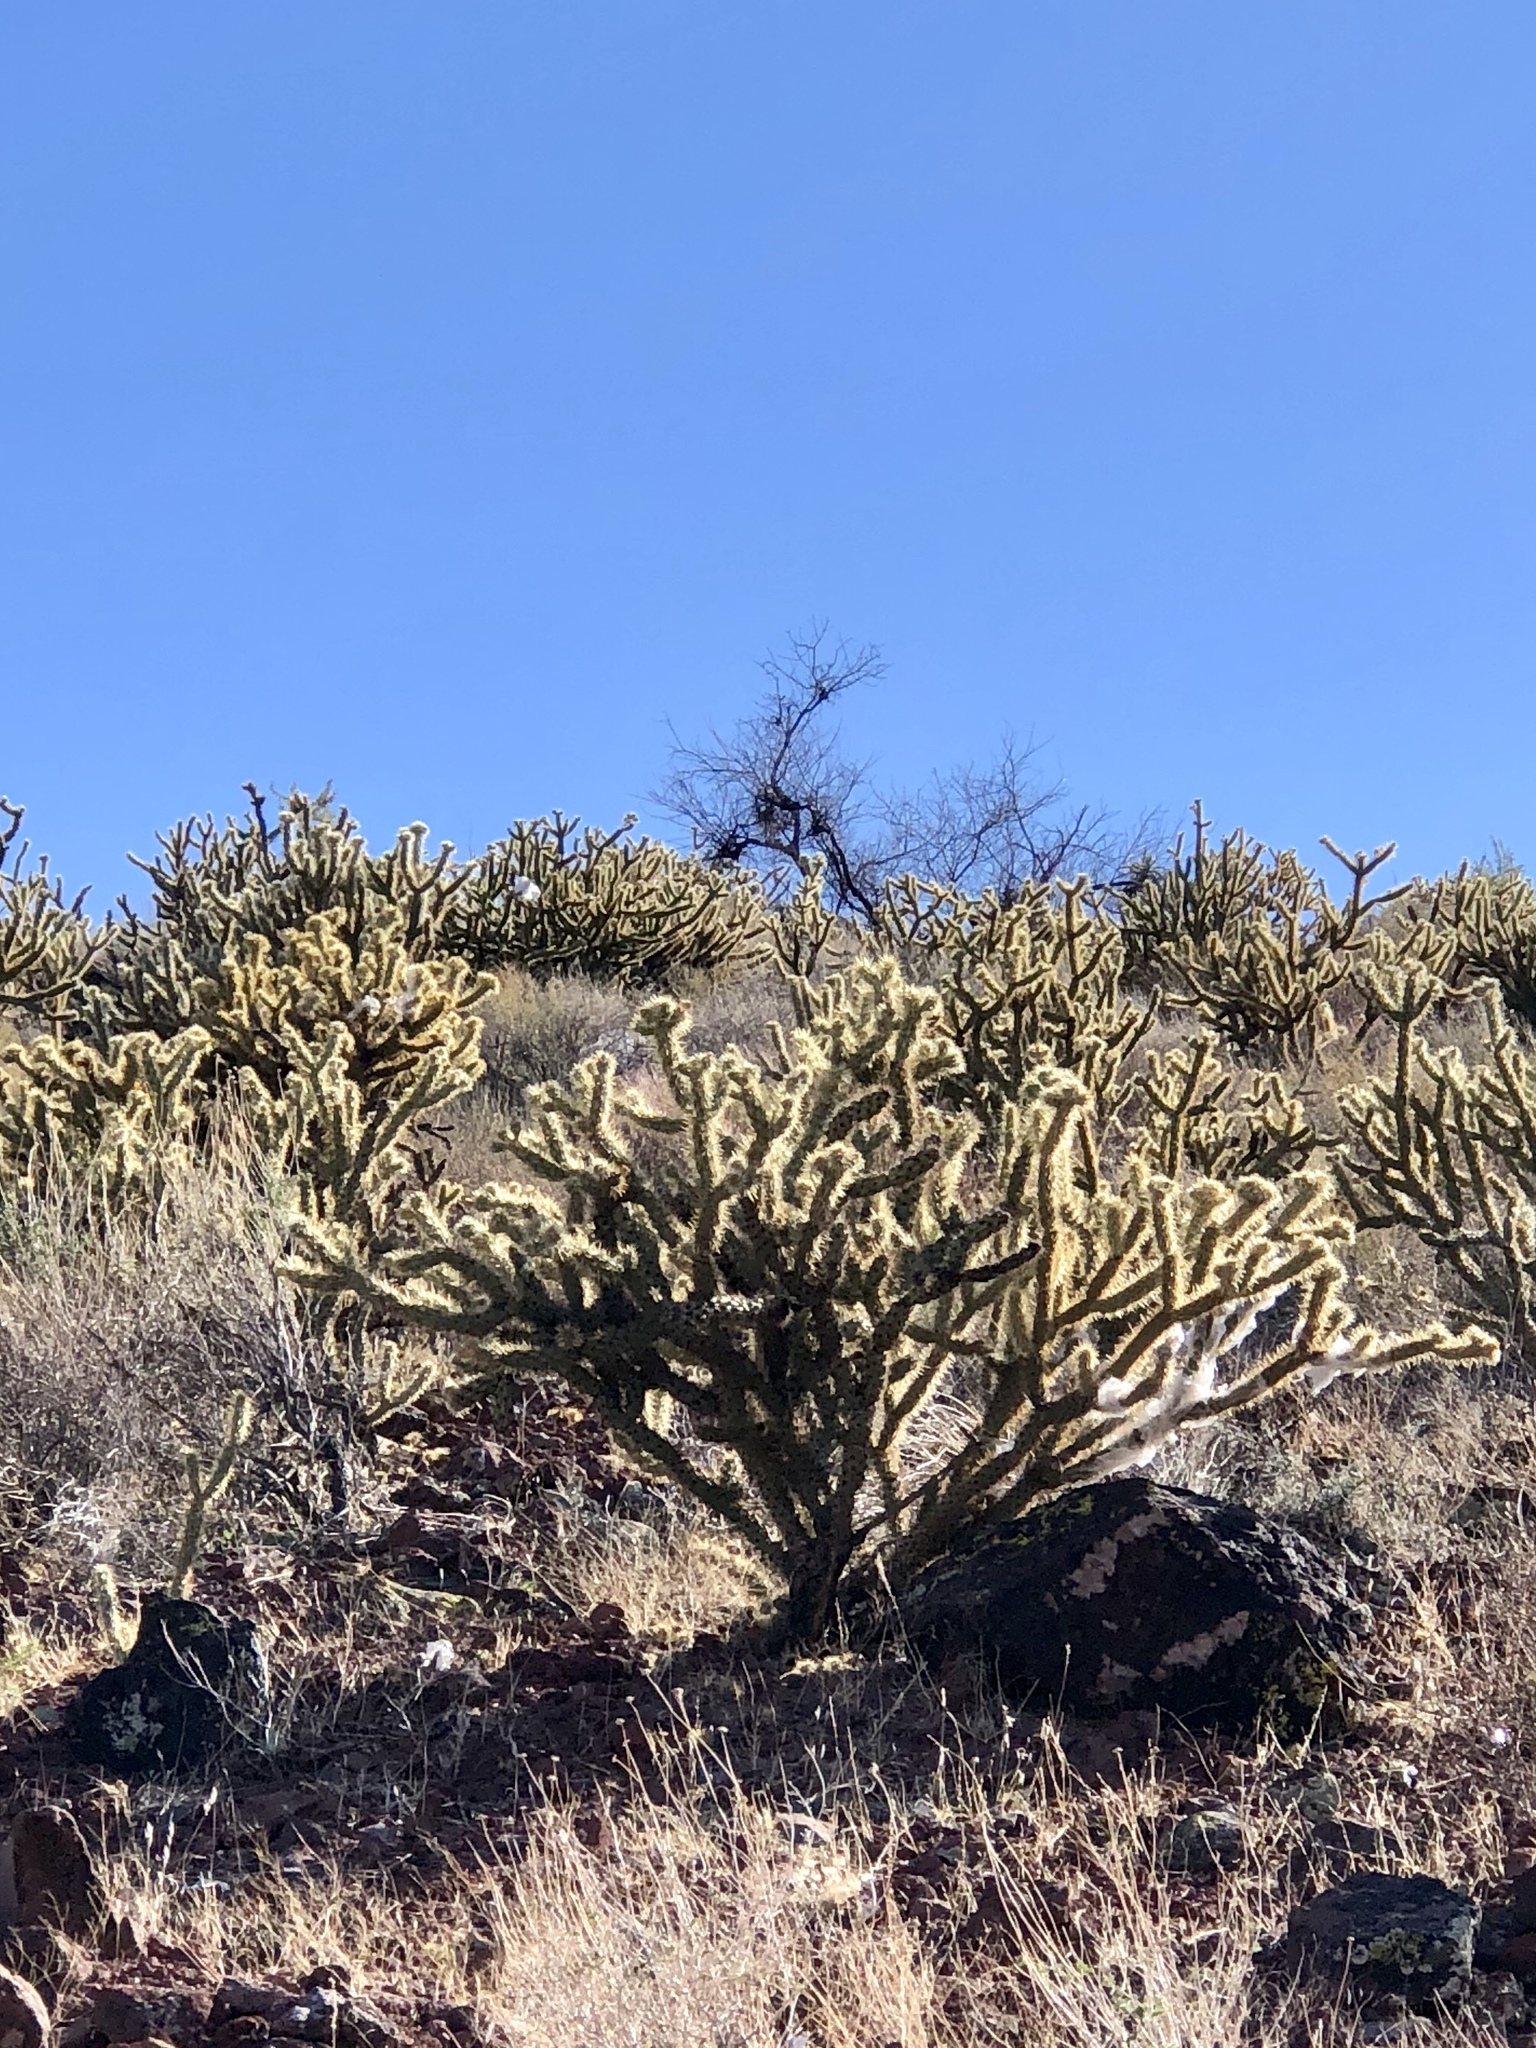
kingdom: Plantae
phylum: Tracheophyta
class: Magnoliopsida
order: Caryophyllales
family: Cactaceae
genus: Cylindropuntia
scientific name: Cylindropuntia acanthocarpa
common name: Buckhorn cholla
